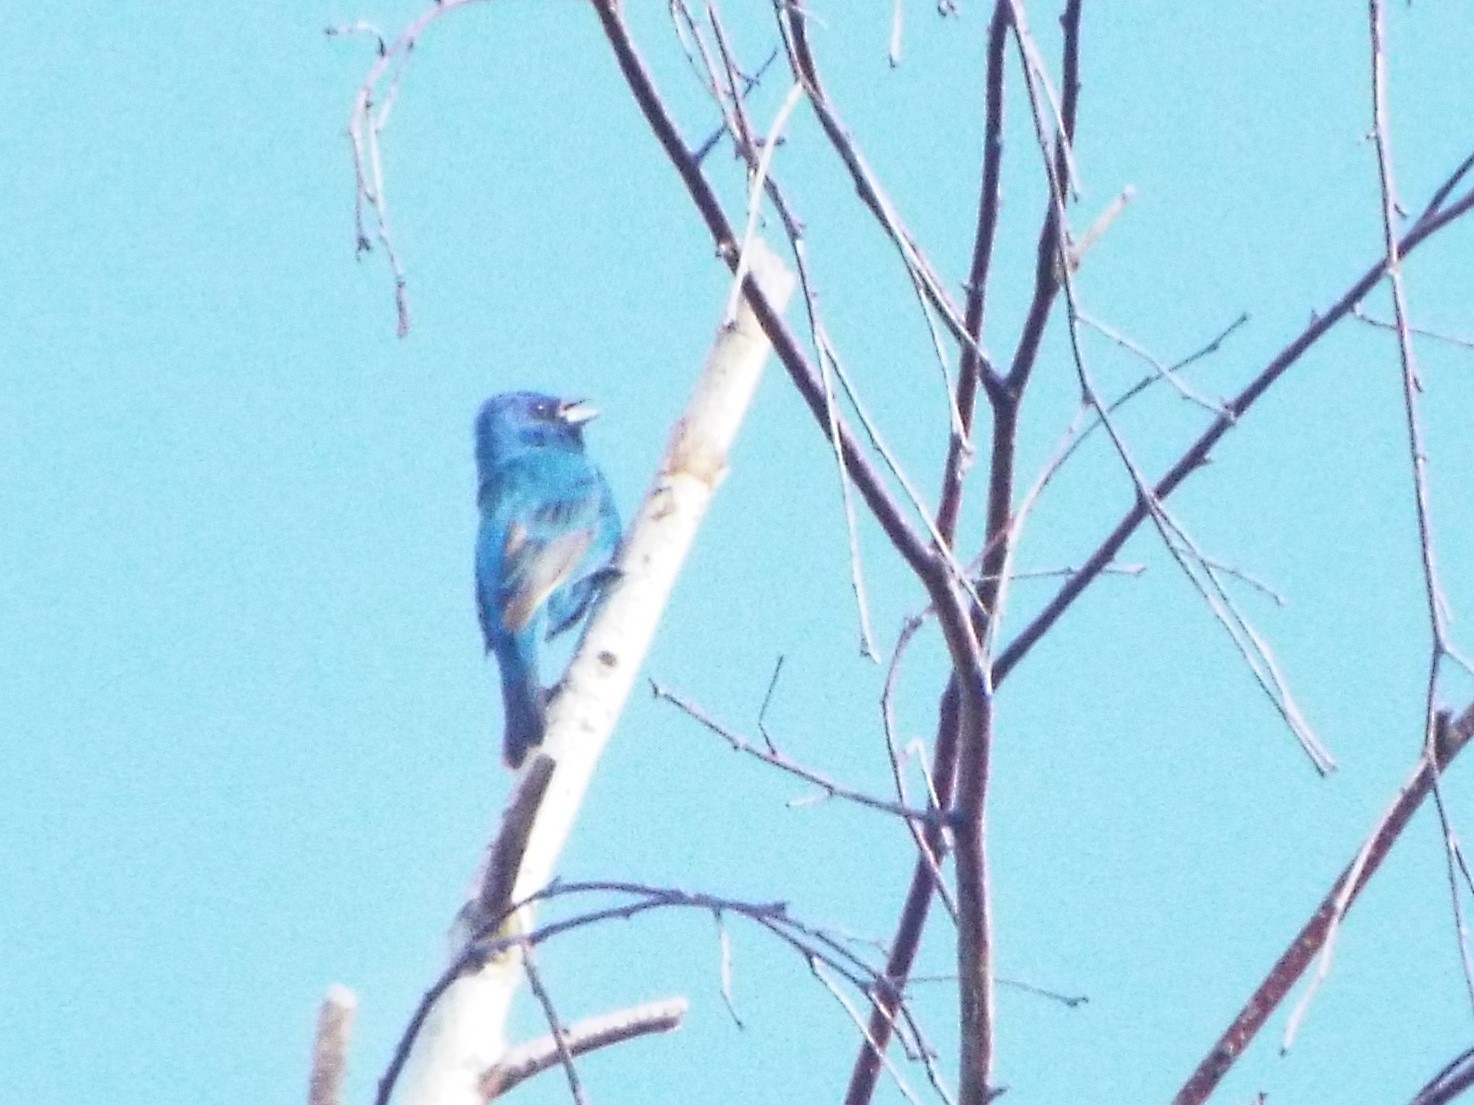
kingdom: Animalia
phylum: Chordata
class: Aves
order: Passeriformes
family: Cardinalidae
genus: Passerina
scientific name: Passerina cyanea
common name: Indigo bunting
